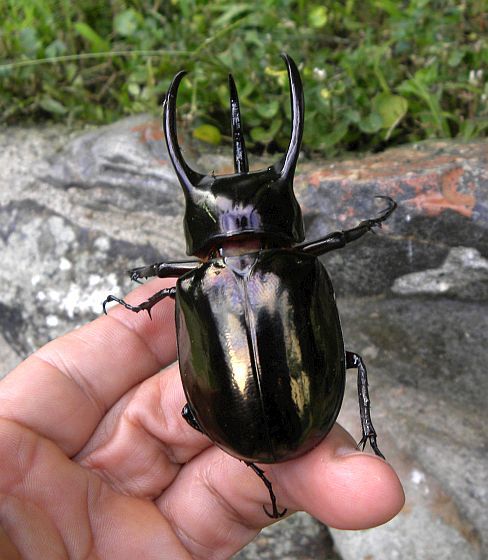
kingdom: Animalia
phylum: Arthropoda
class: Insecta
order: Coleoptera
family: Scarabaeidae
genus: Chalcosoma
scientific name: Chalcosoma atlas
